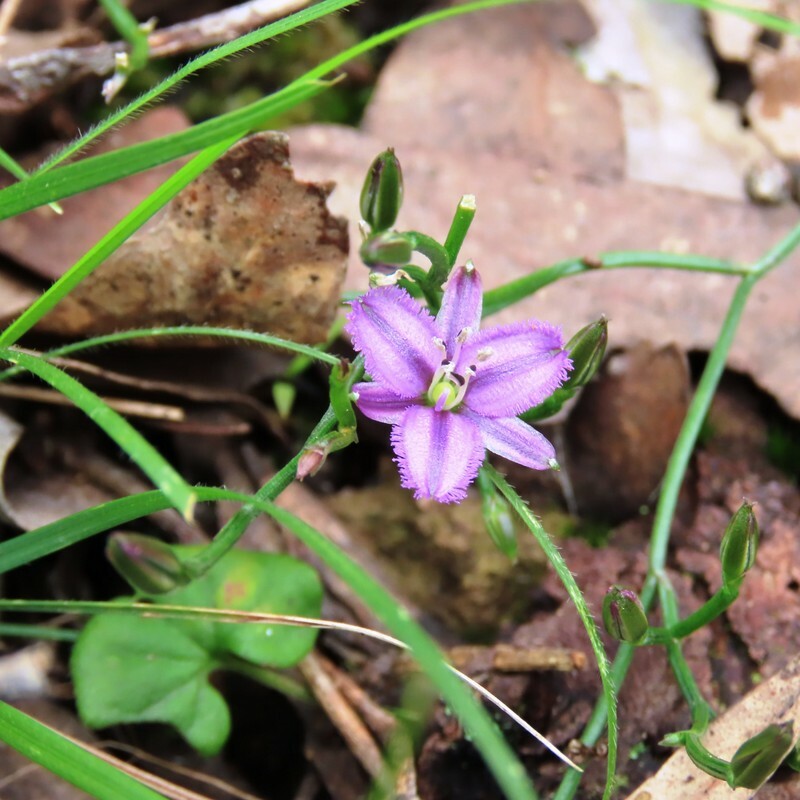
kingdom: Plantae
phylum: Tracheophyta
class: Liliopsida
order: Asparagales
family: Asparagaceae
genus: Thysanotus
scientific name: Thysanotus patersonii
